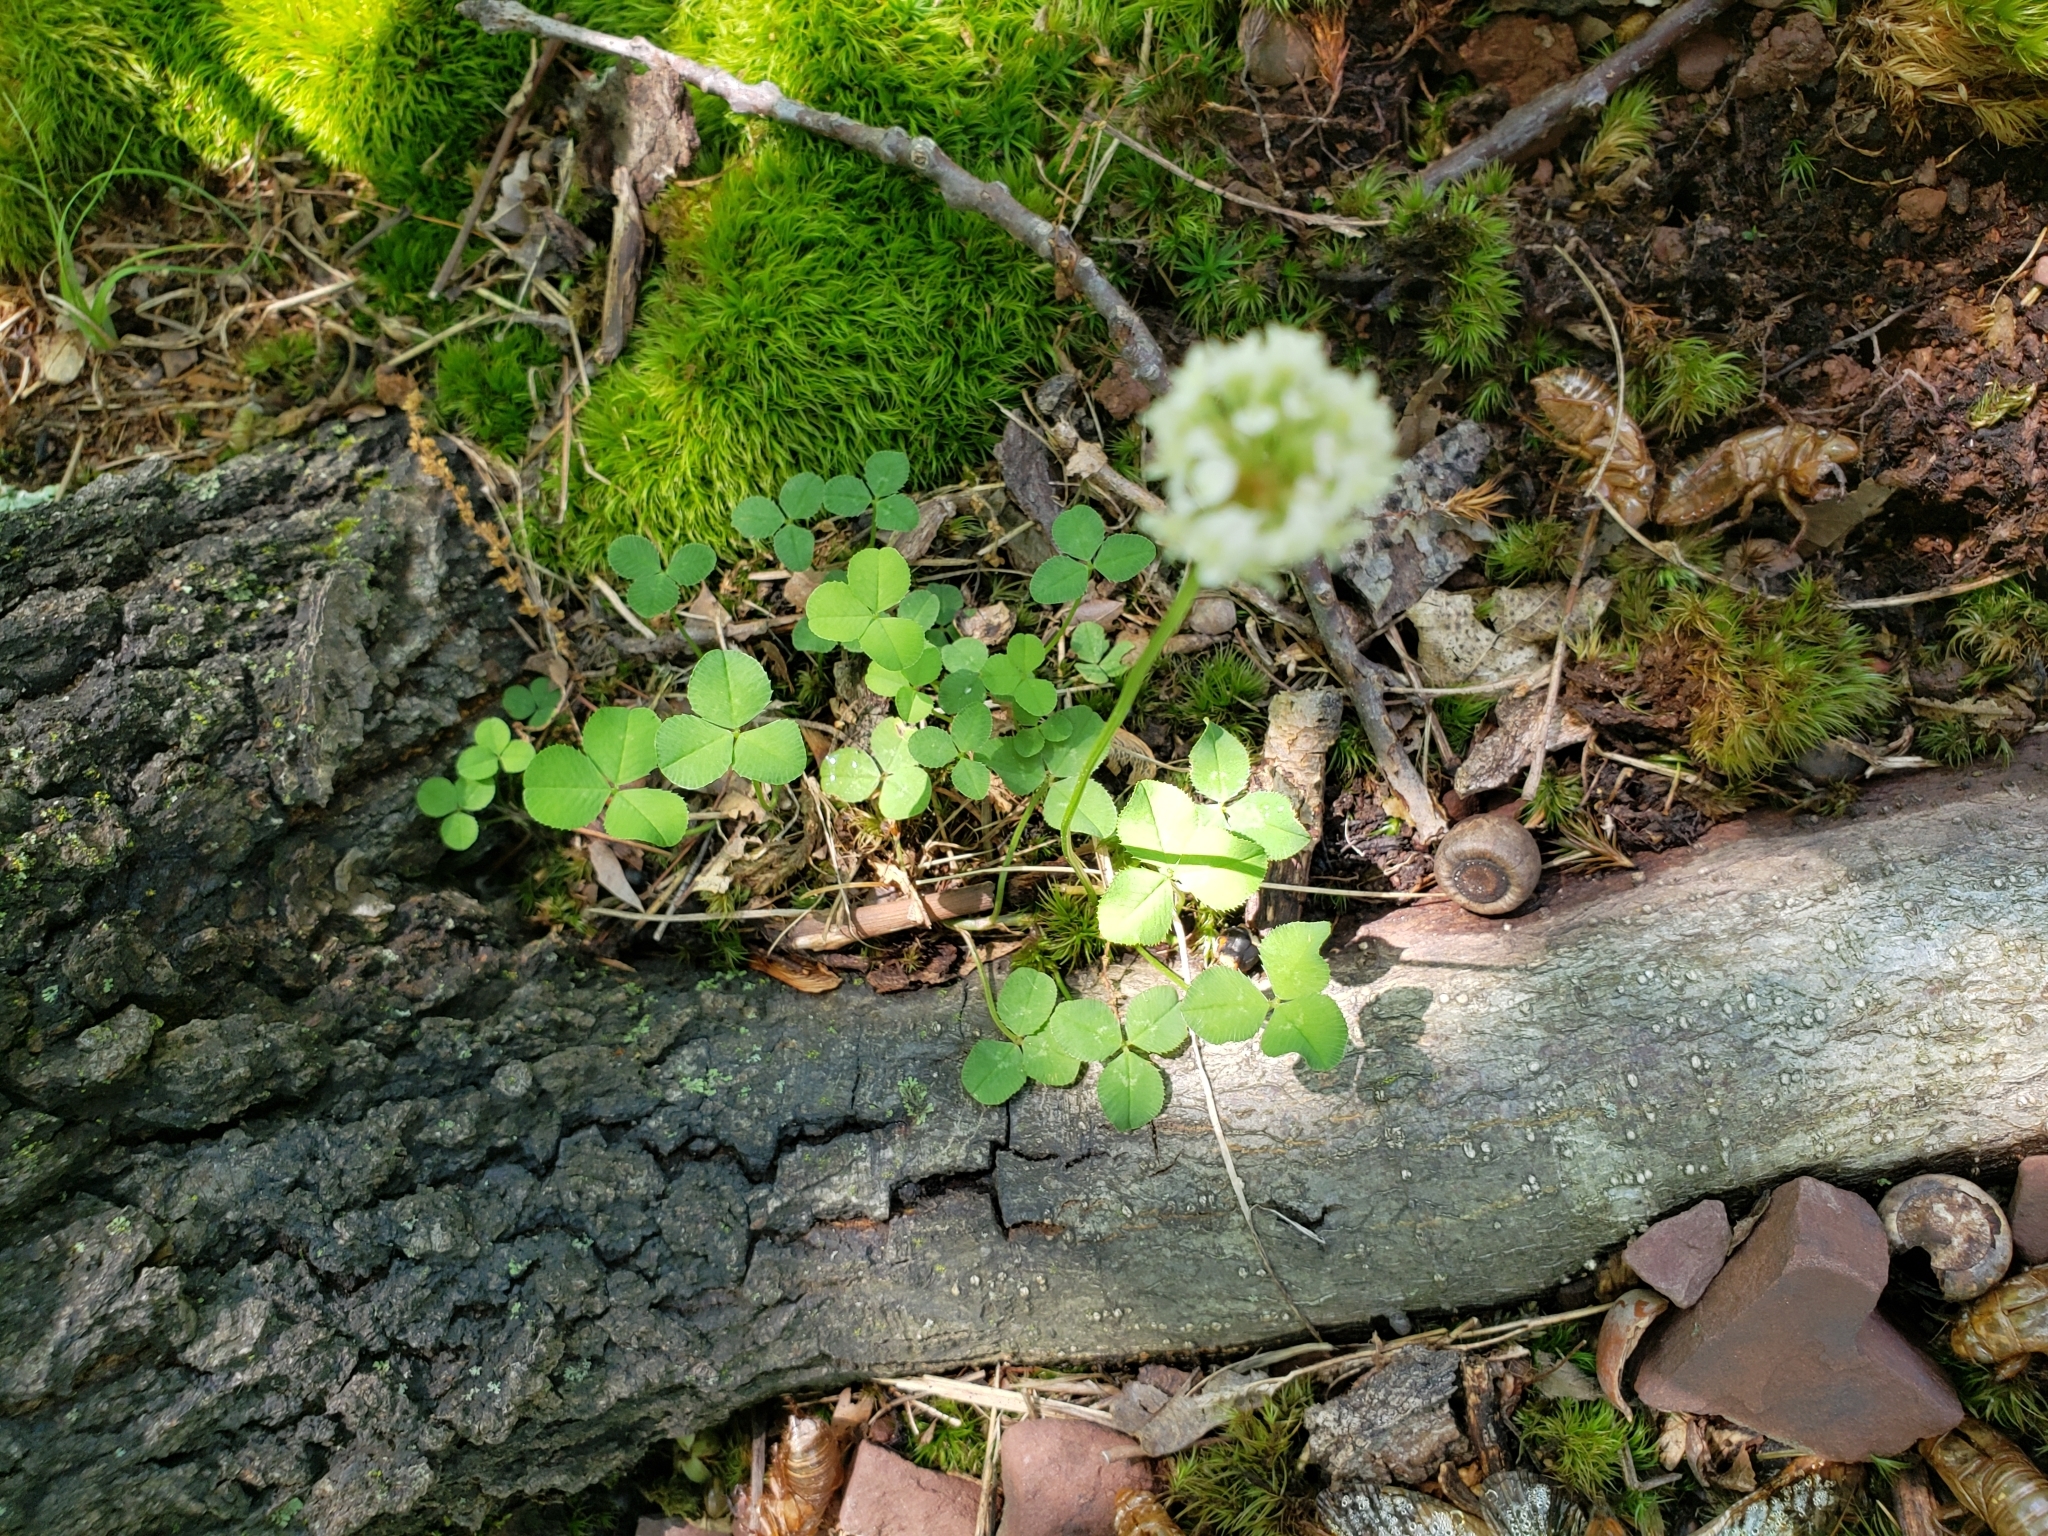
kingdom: Plantae
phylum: Tracheophyta
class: Magnoliopsida
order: Fabales
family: Fabaceae
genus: Trifolium
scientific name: Trifolium repens
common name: White clover
